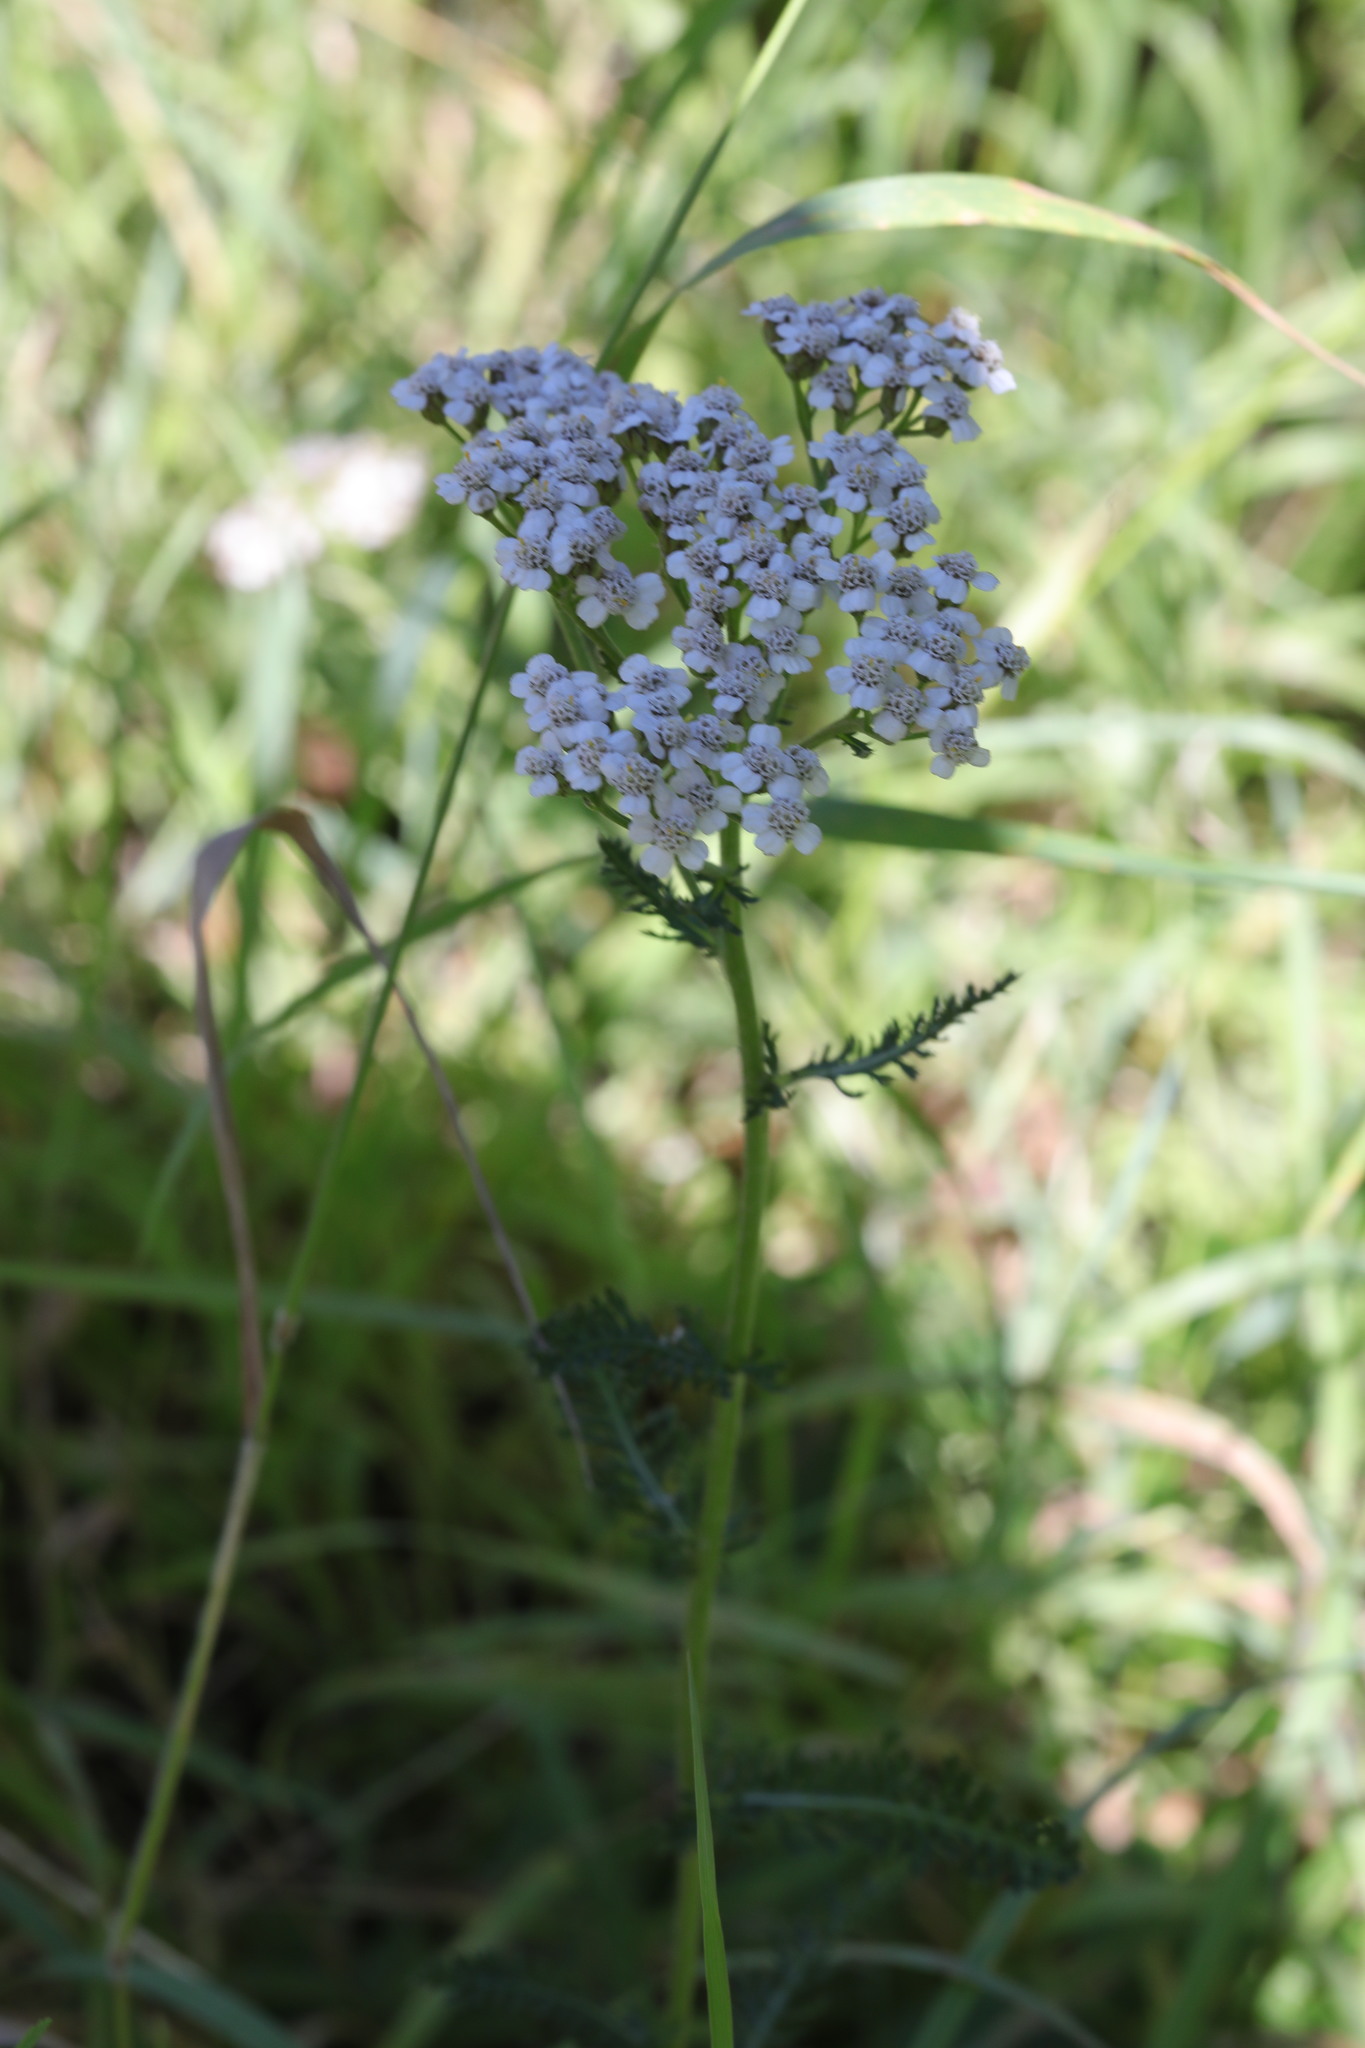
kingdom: Plantae
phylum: Tracheophyta
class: Magnoliopsida
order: Asterales
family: Asteraceae
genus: Achillea
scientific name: Achillea millefolium
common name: Yarrow
